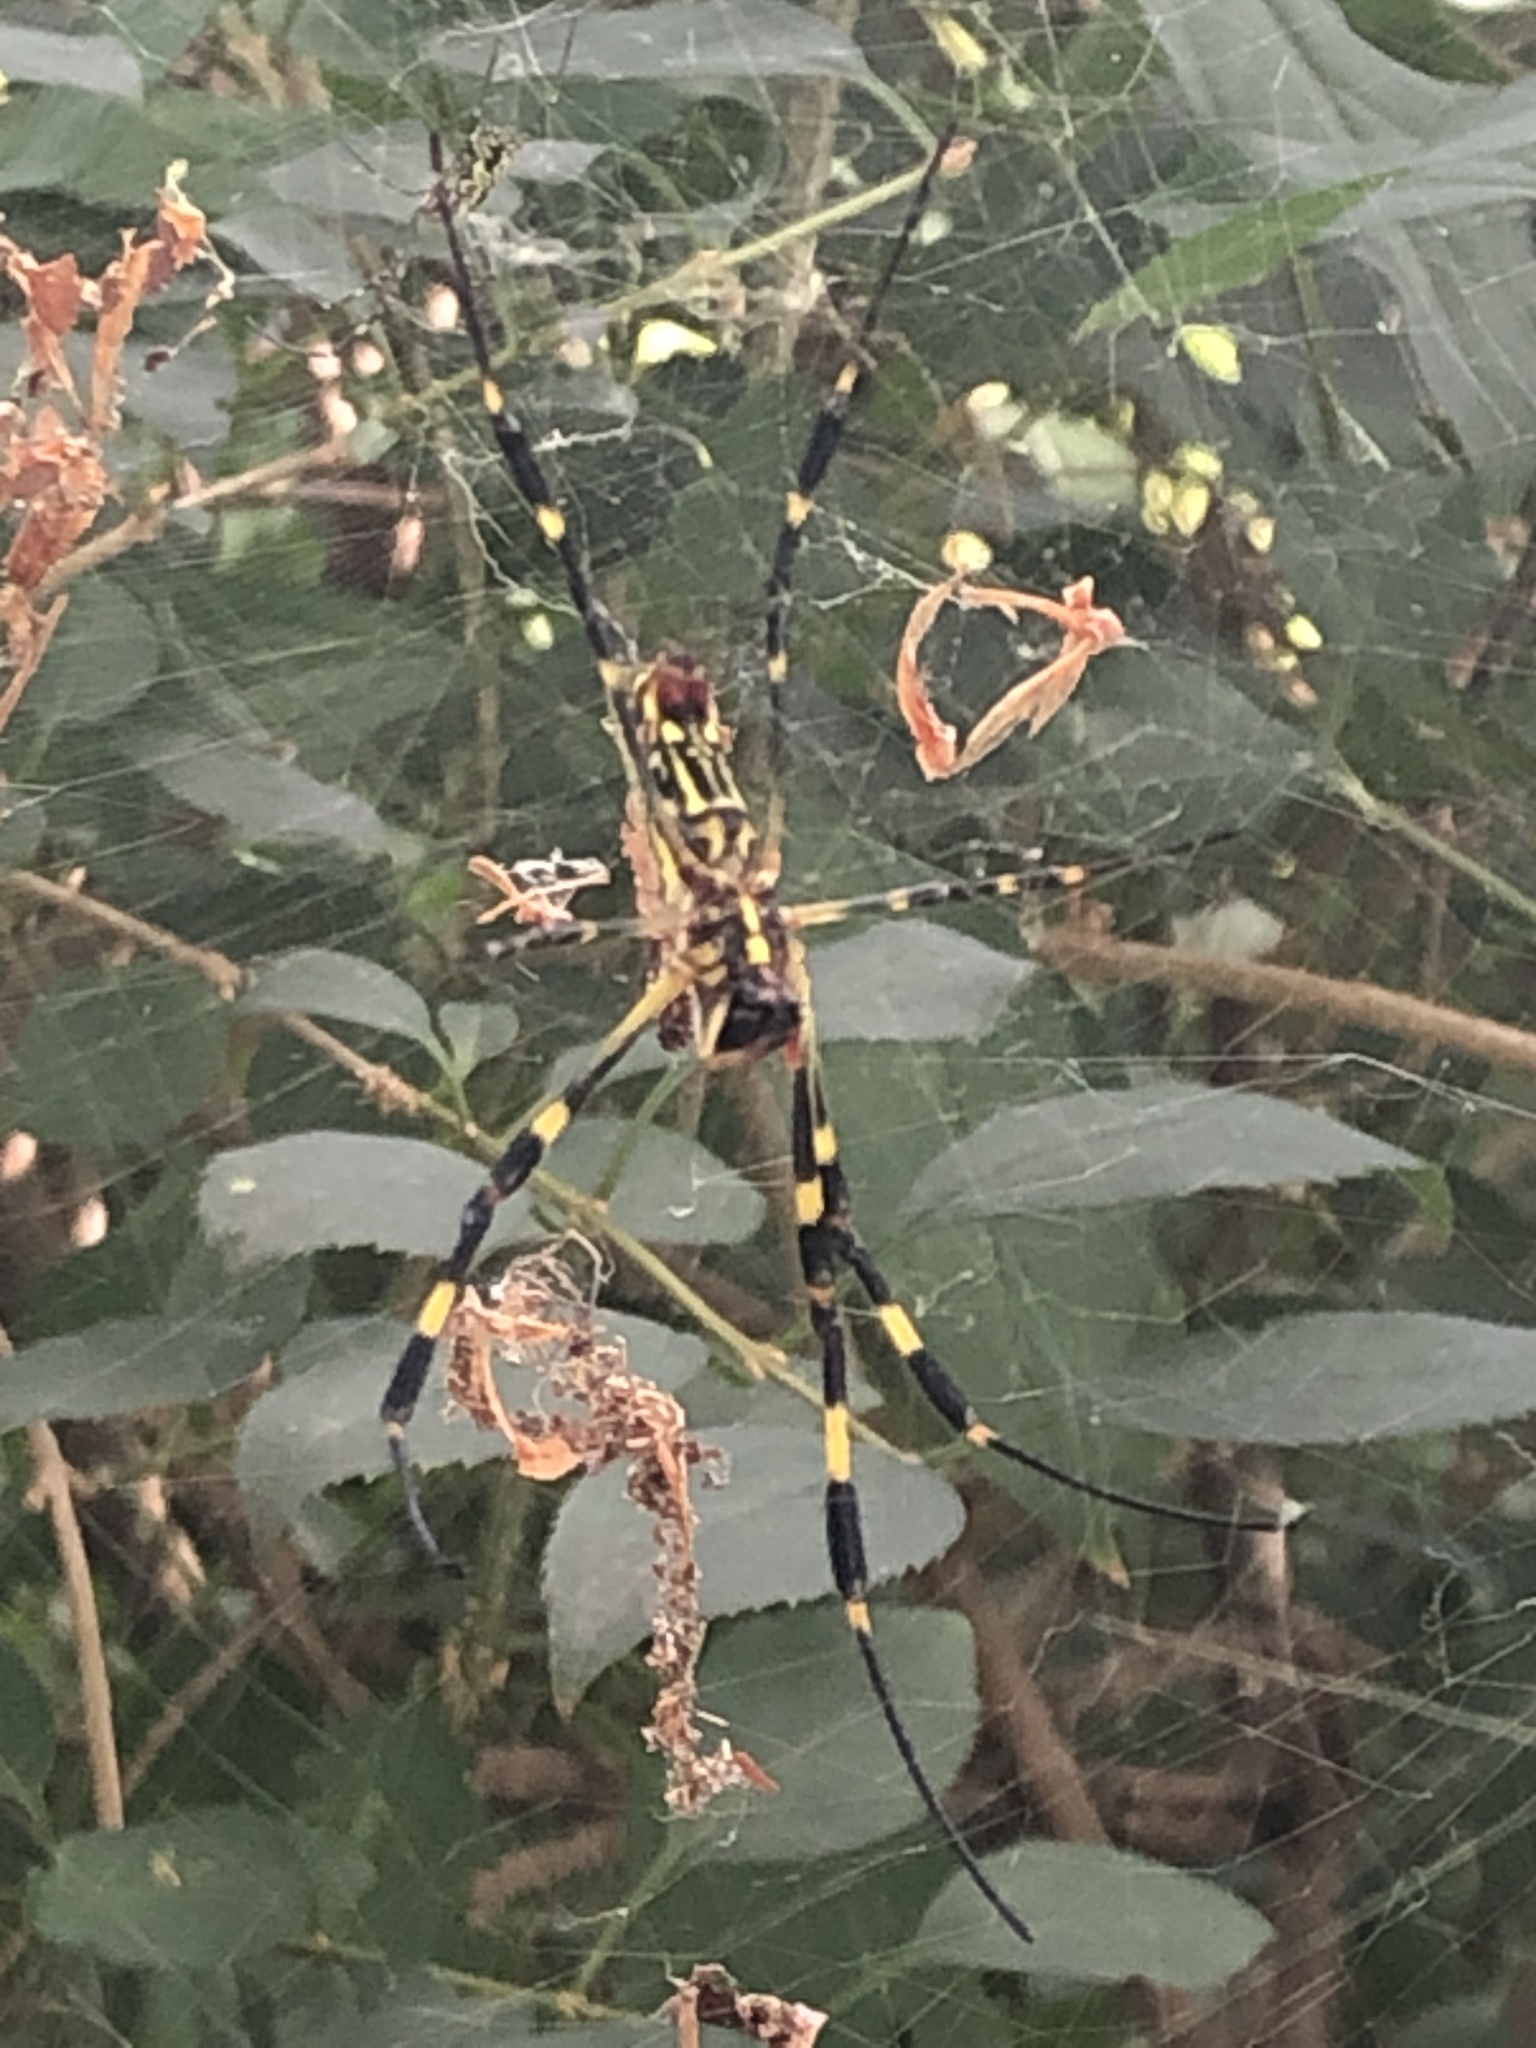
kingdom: Animalia
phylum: Arthropoda
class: Arachnida
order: Araneae
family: Araneidae
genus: Trichonephila
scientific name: Trichonephila clavata
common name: Jorō spider
